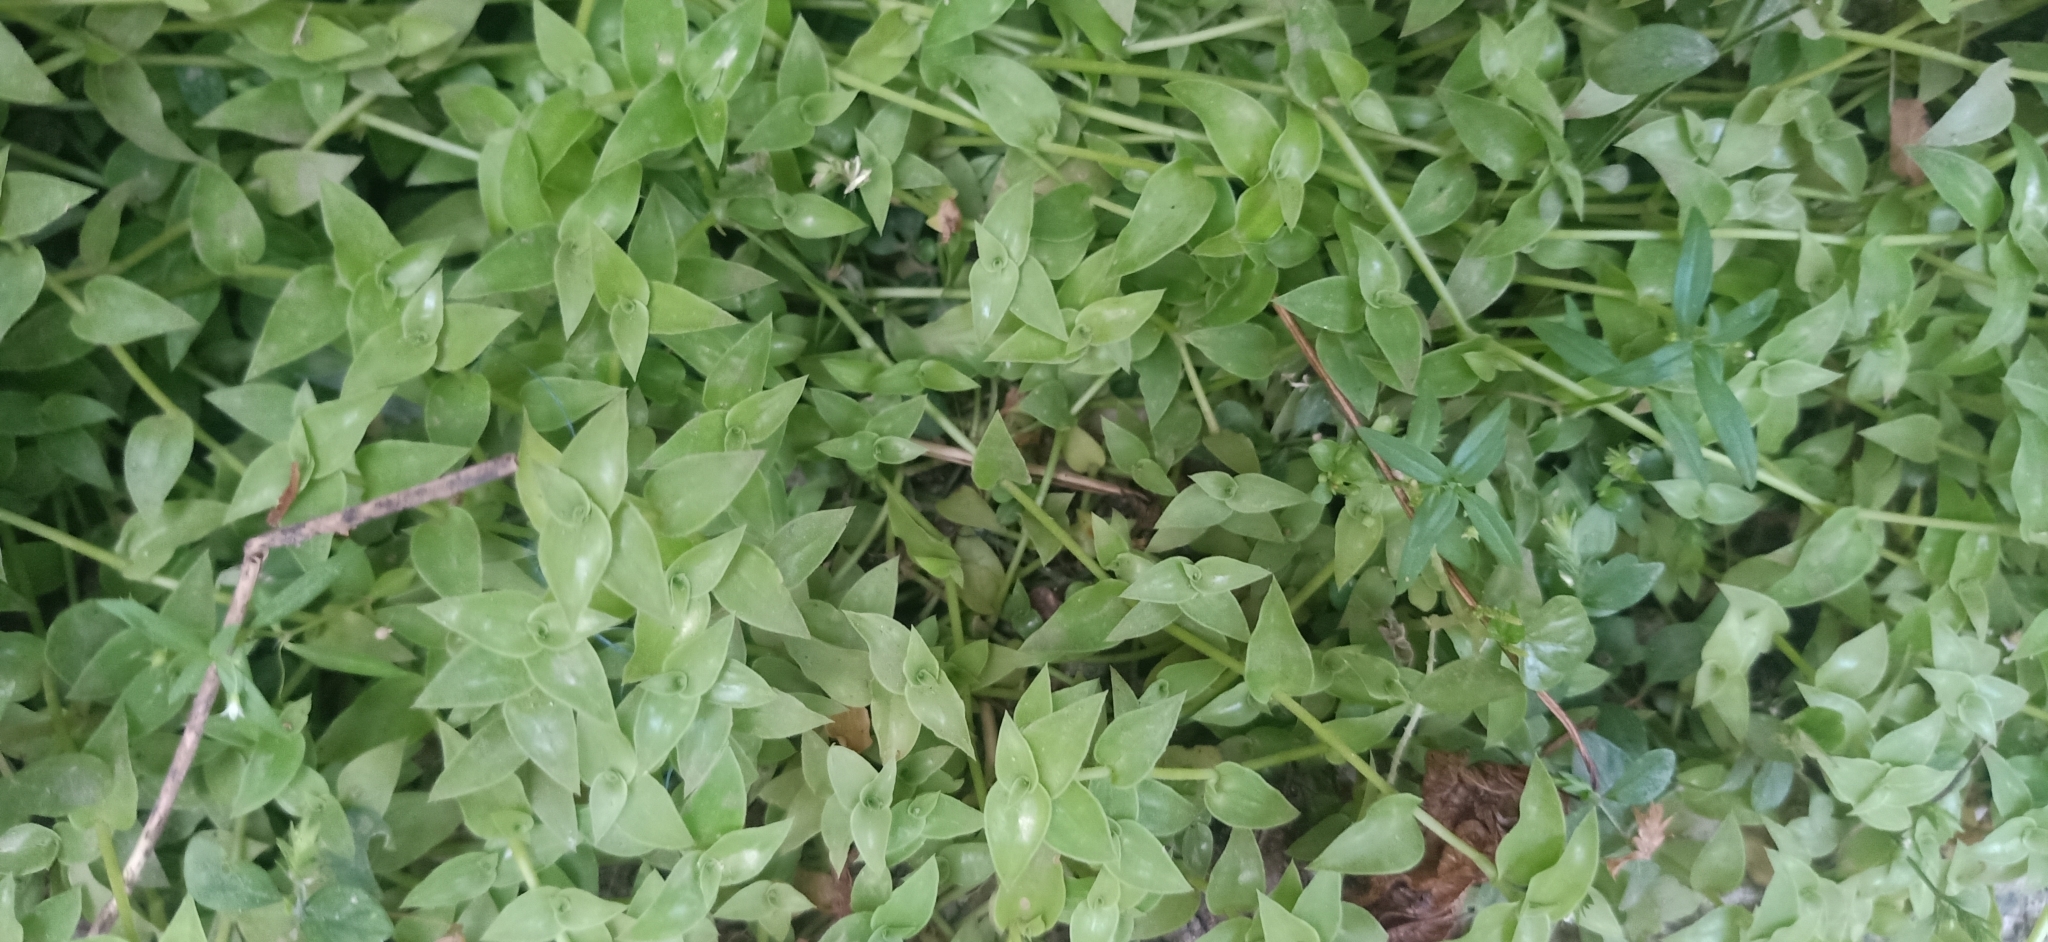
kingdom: Plantae
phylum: Tracheophyta
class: Liliopsida
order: Commelinales
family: Commelinaceae
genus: Tradescantia
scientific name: Tradescantia fluminensis
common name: Wandering-jew
